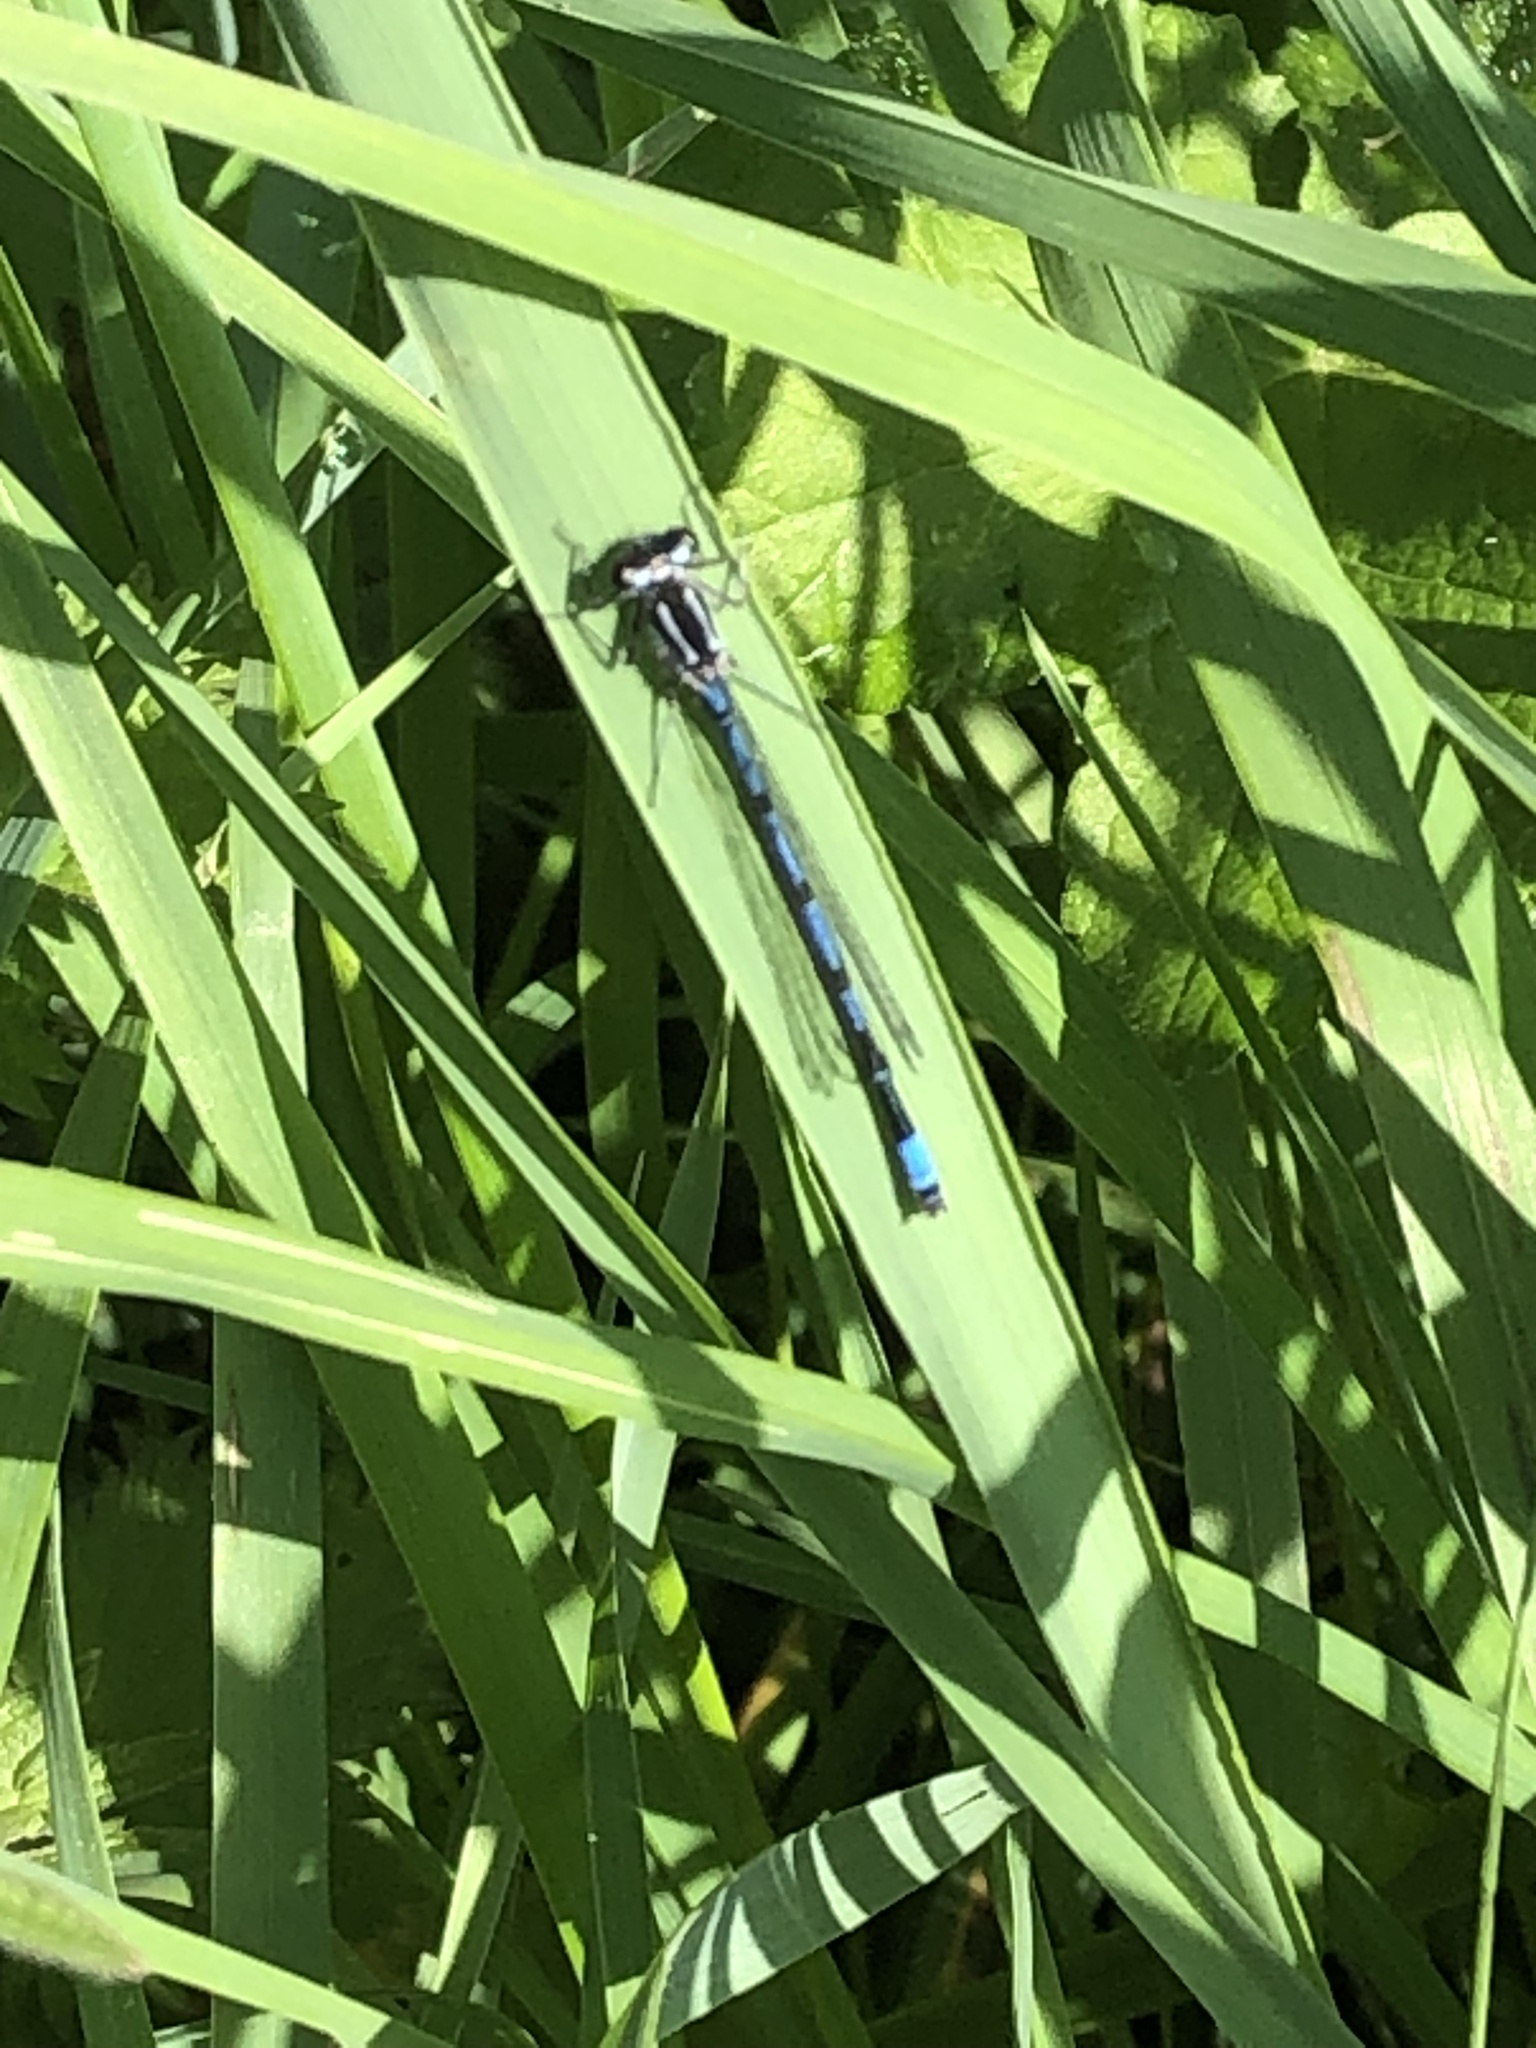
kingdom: Animalia
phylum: Arthropoda
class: Insecta
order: Odonata
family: Coenagrionidae
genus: Coenagrion
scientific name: Coenagrion puella
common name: Azure damselfly
